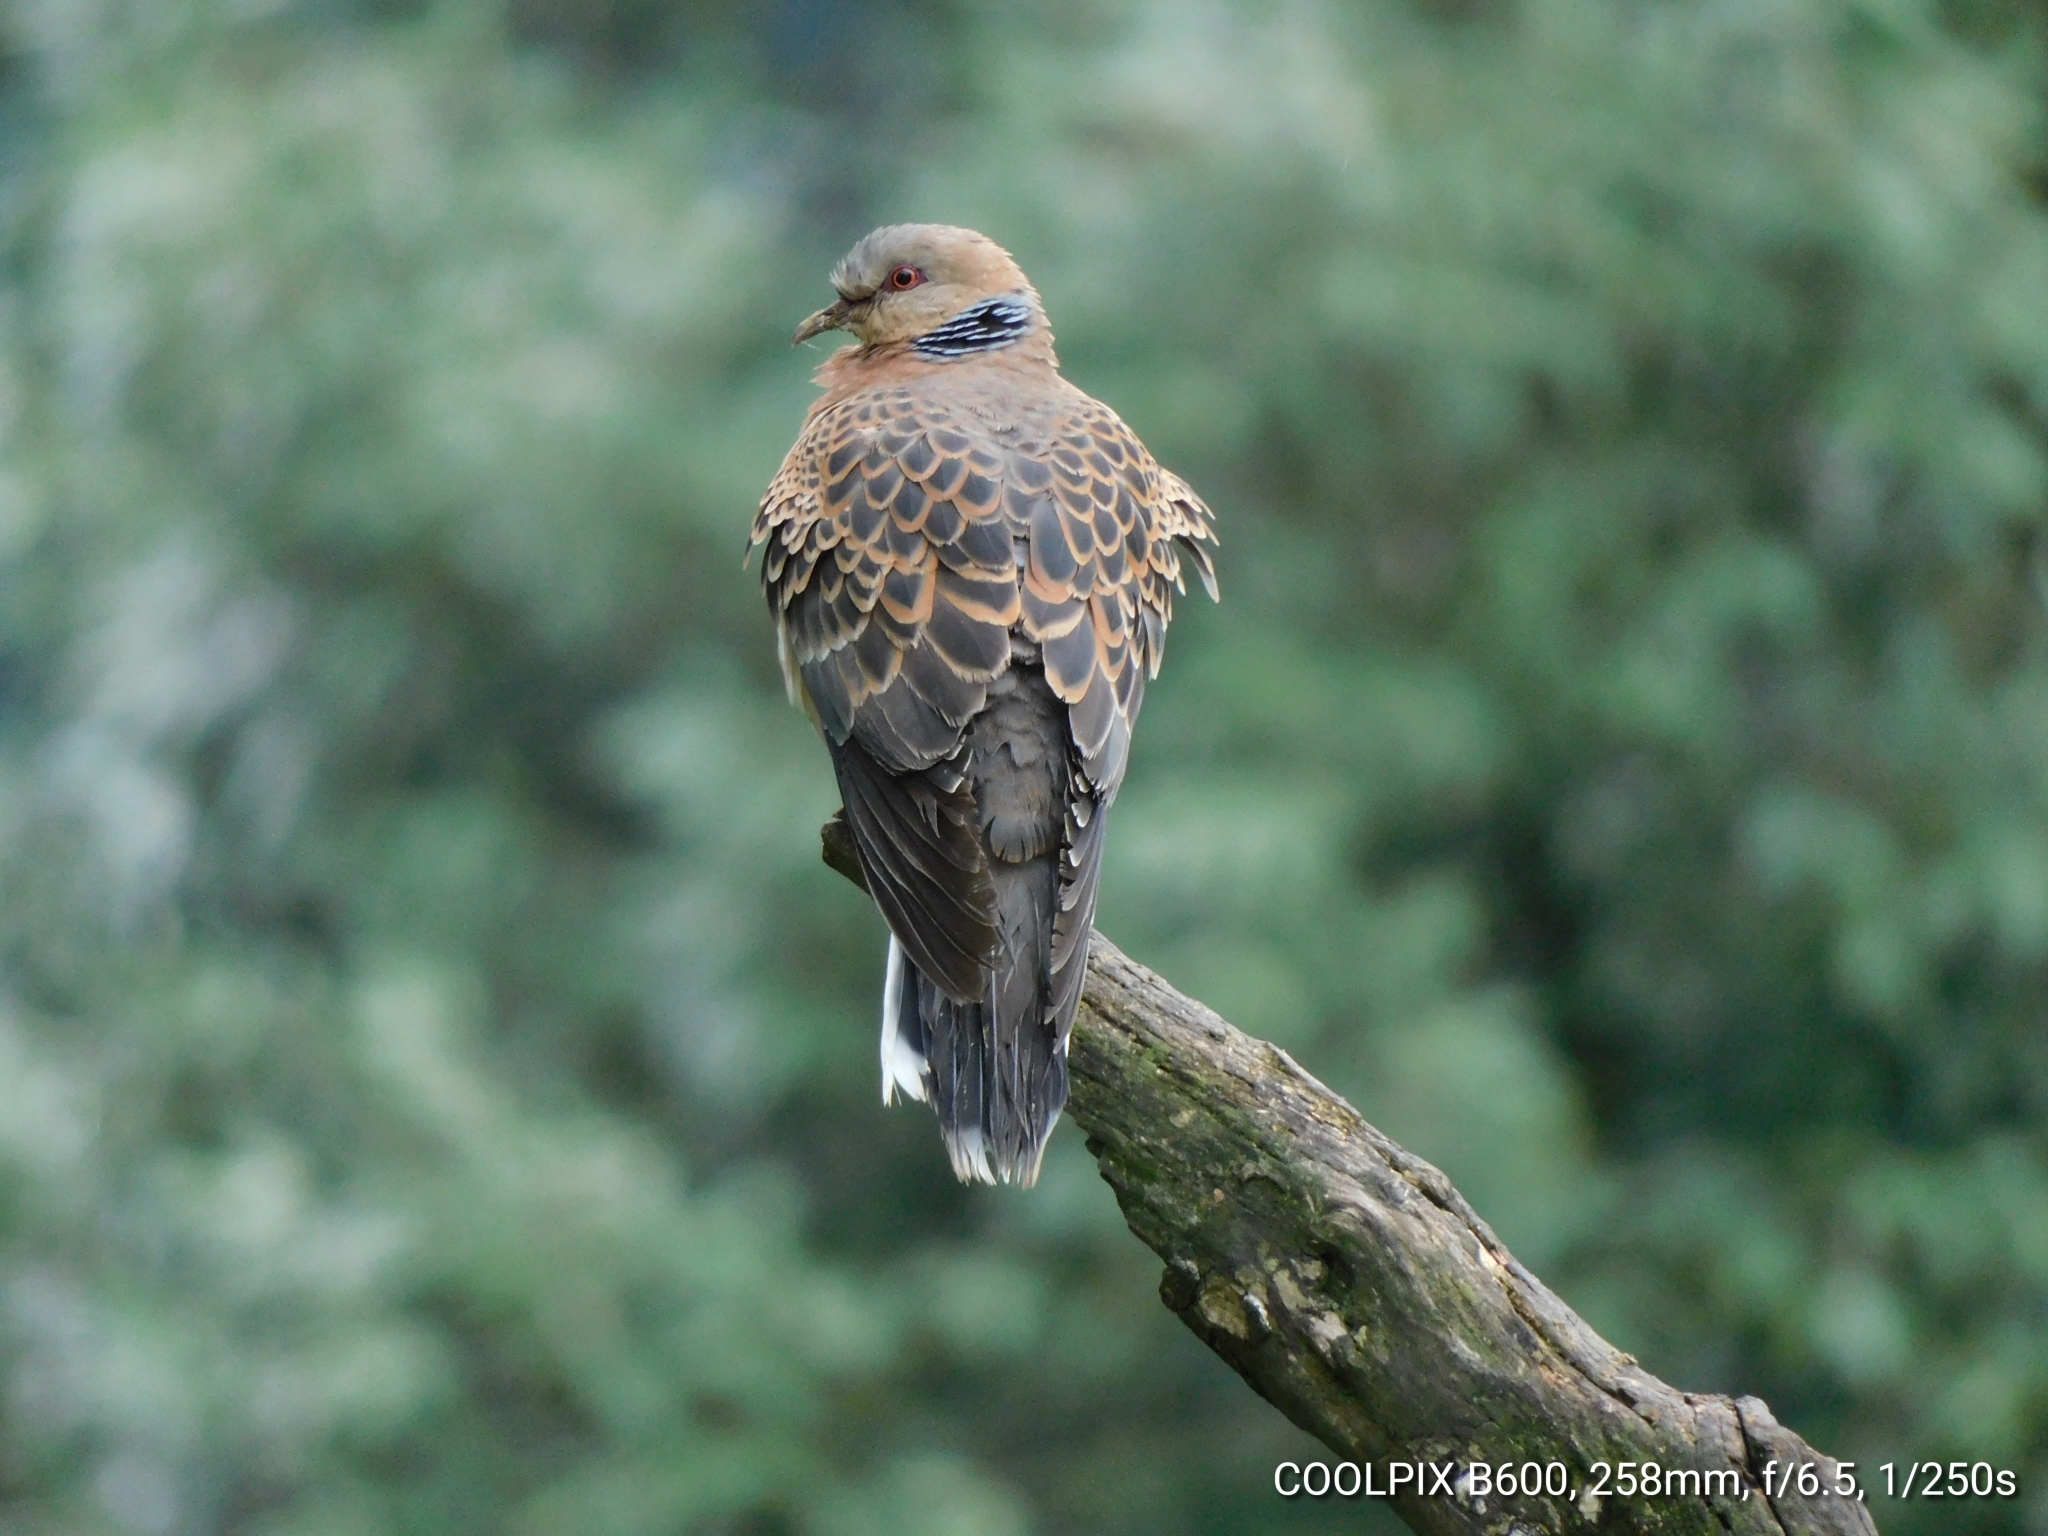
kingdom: Animalia
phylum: Chordata
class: Aves
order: Columbiformes
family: Columbidae
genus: Streptopelia
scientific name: Streptopelia orientalis
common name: Oriental turtle dove
